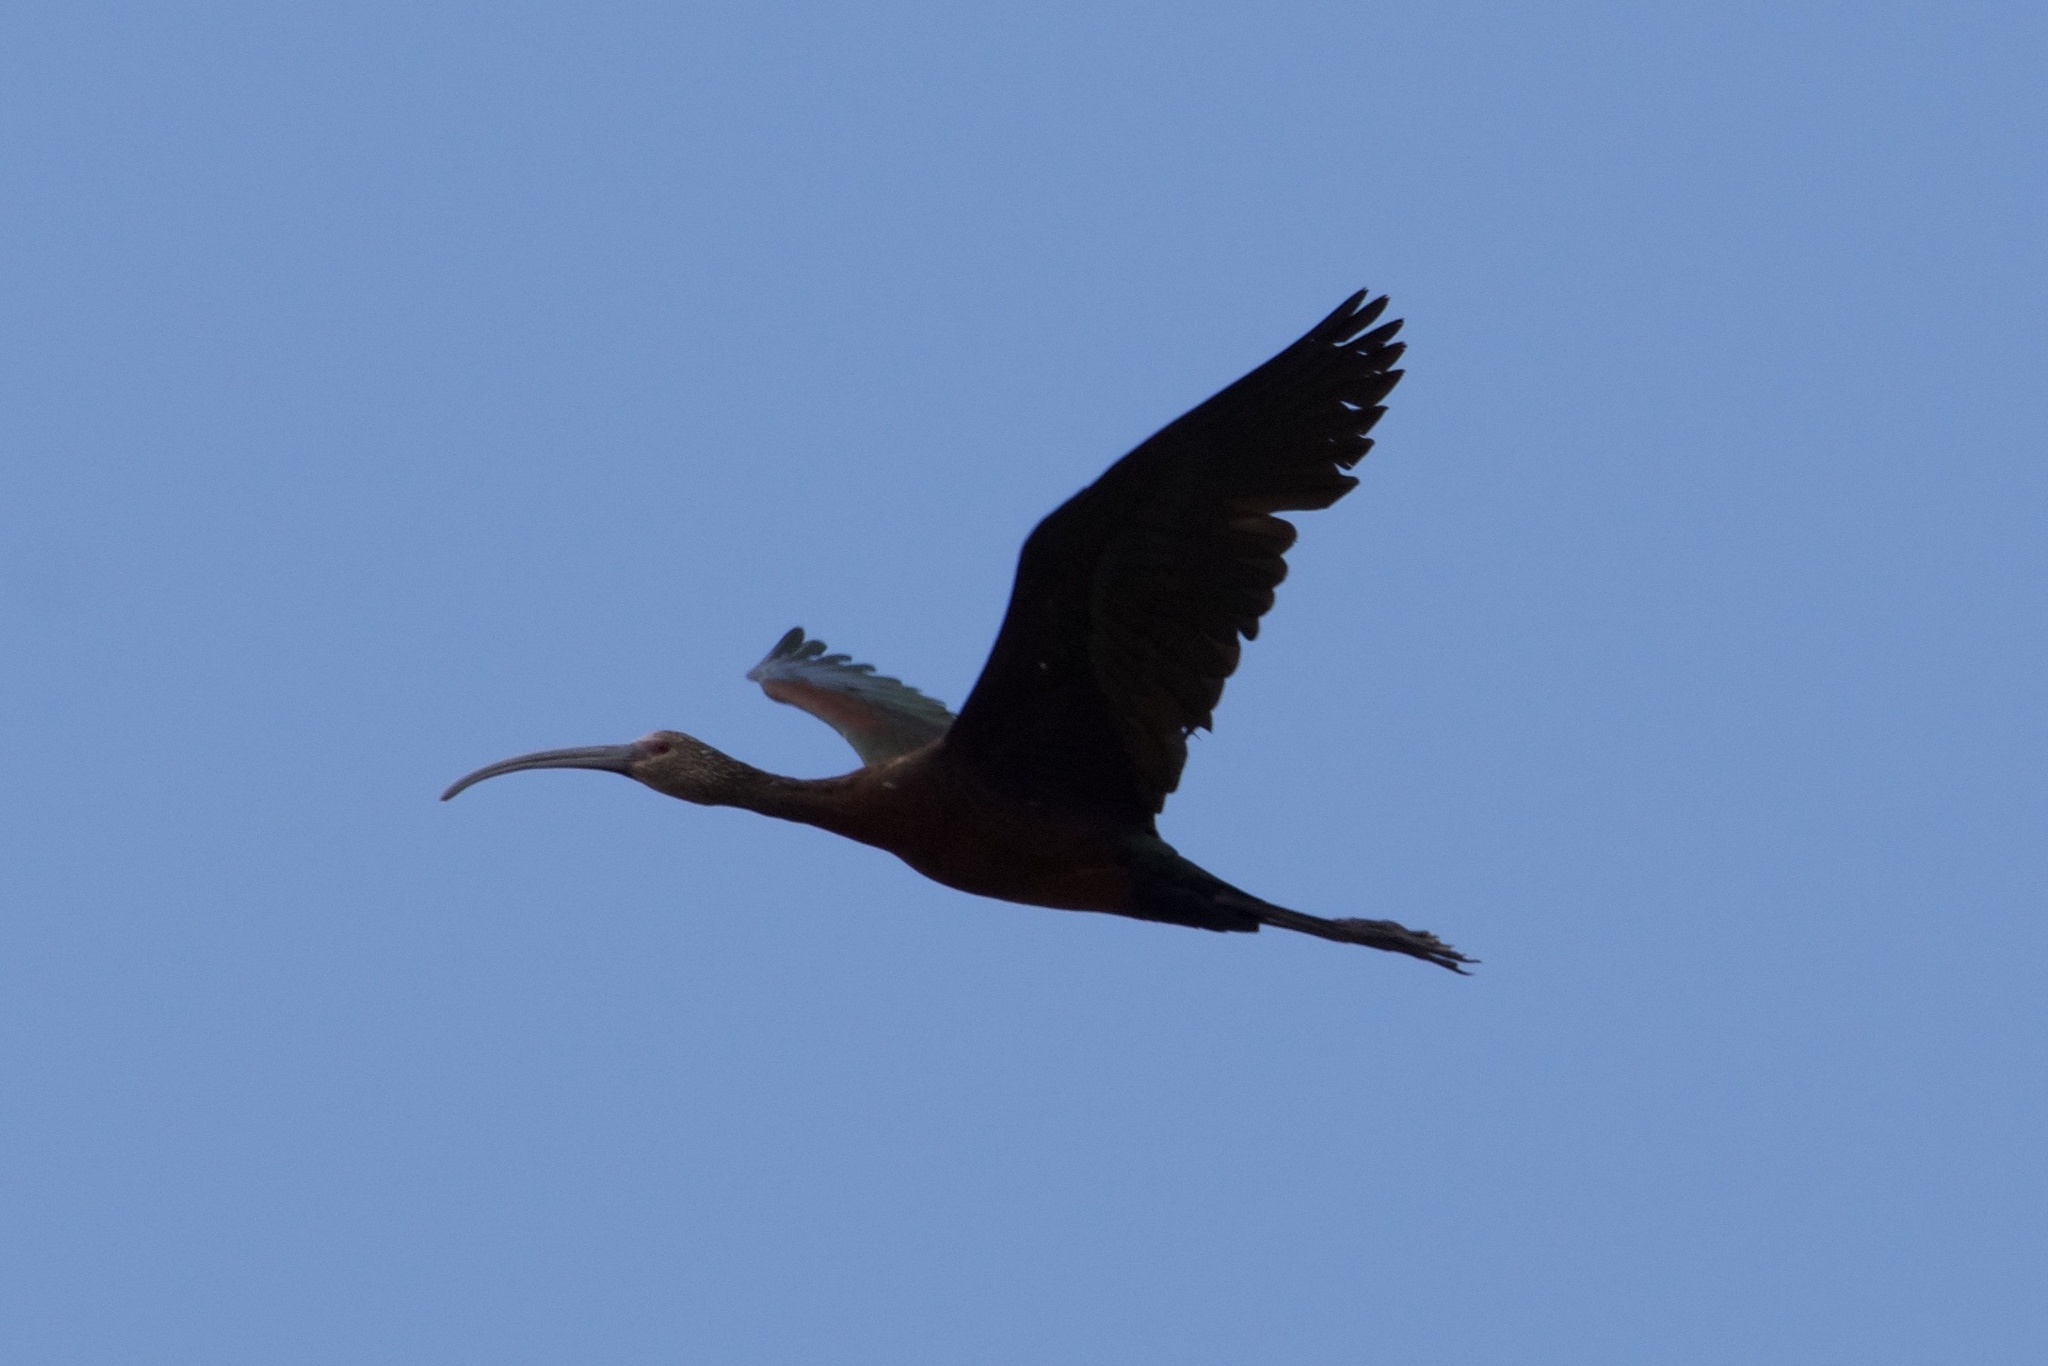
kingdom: Animalia
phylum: Chordata
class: Aves
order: Pelecaniformes
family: Threskiornithidae
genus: Plegadis
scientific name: Plegadis chihi
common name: White-faced ibis
